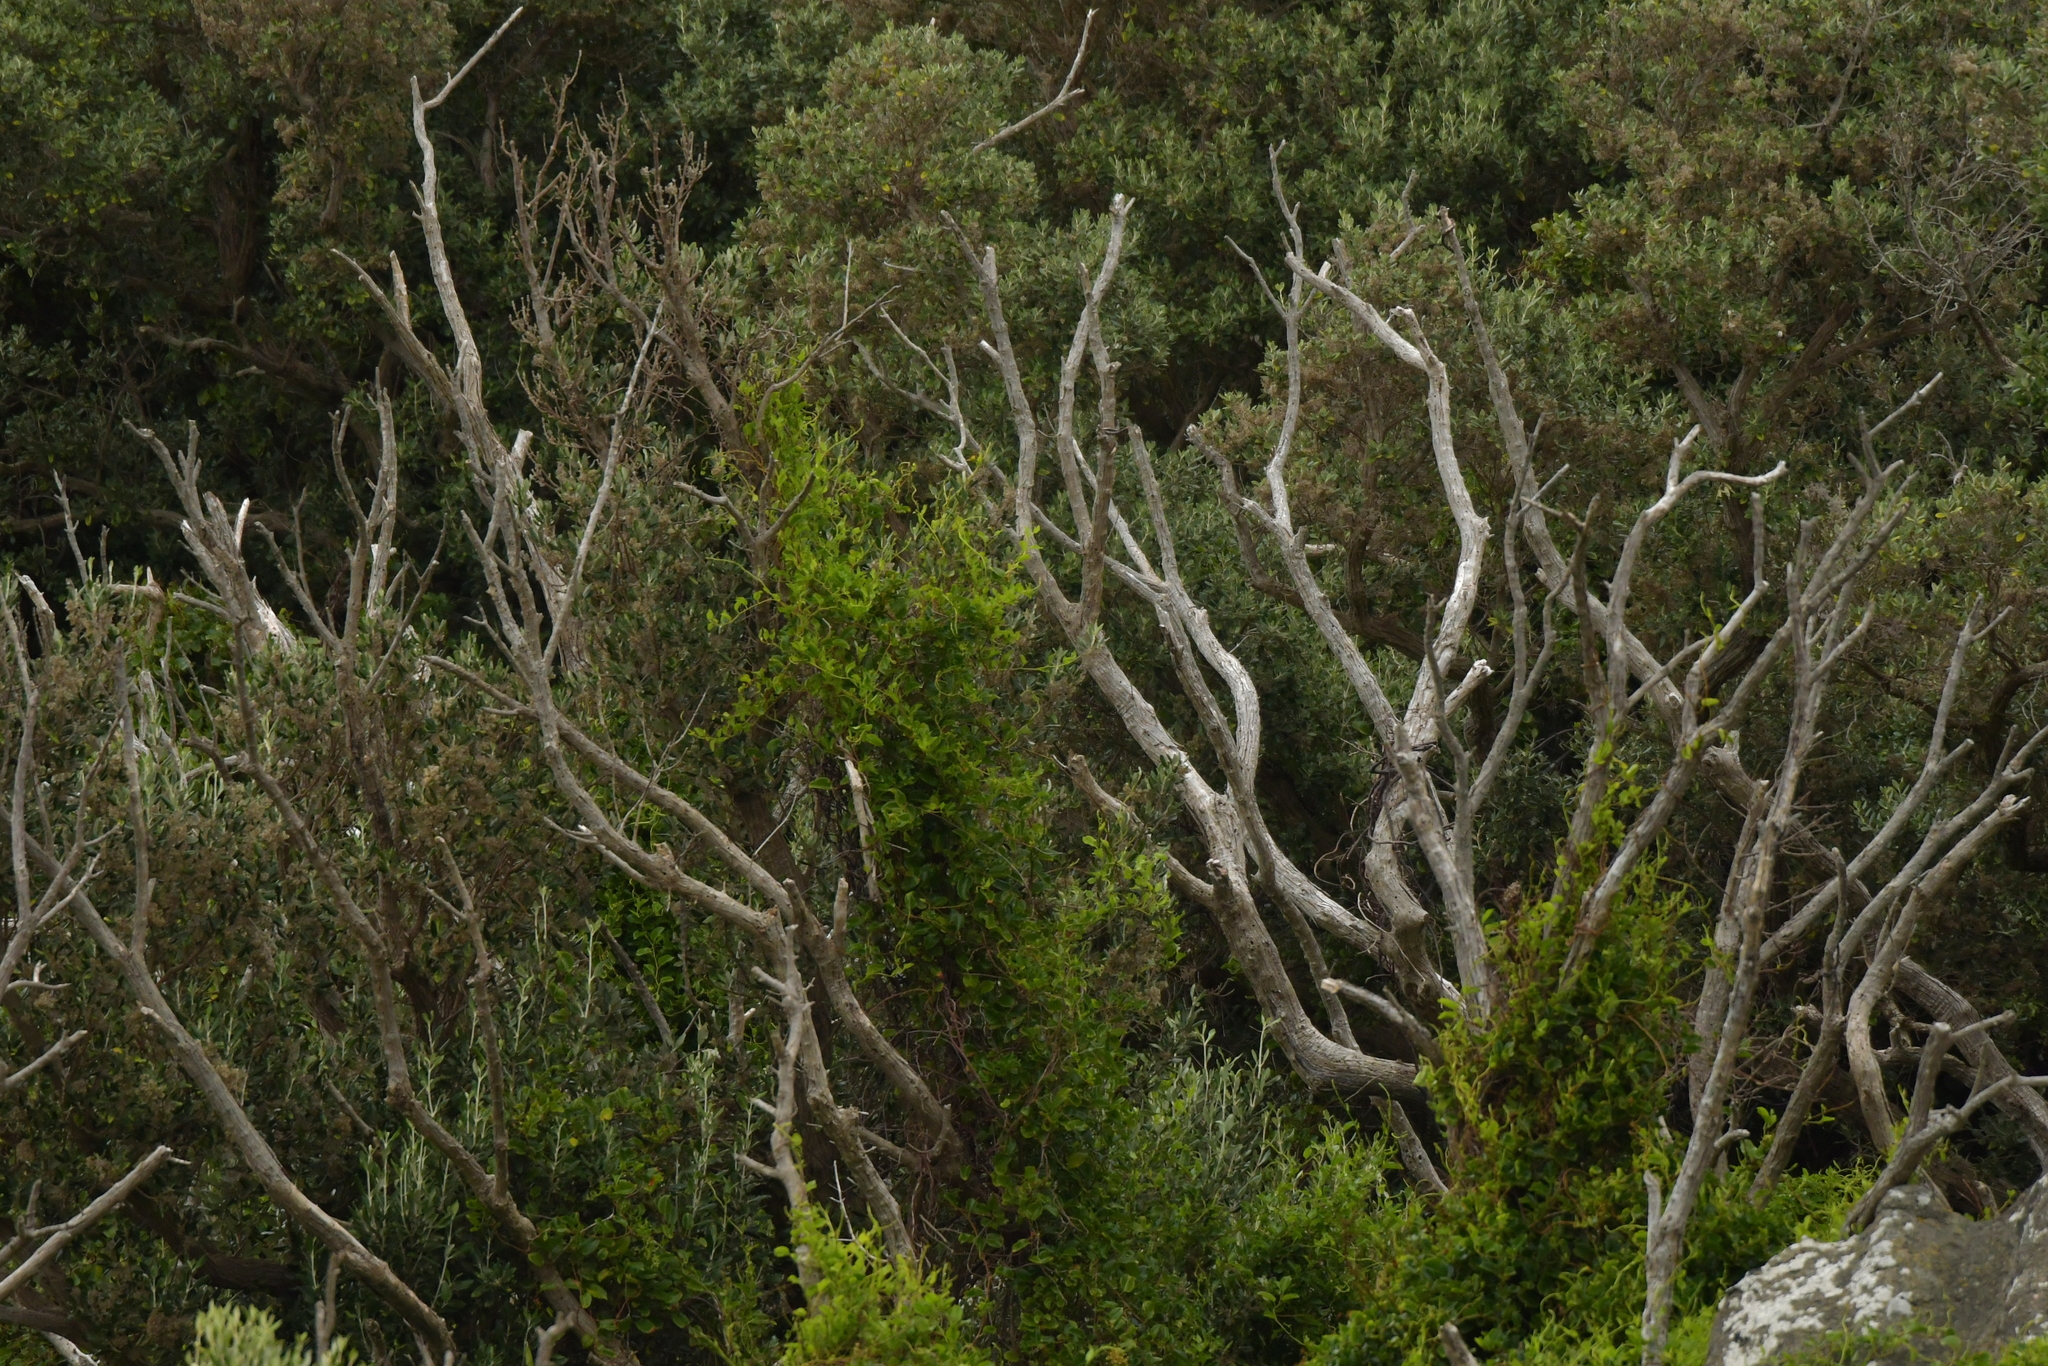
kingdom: Plantae
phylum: Tracheophyta
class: Magnoliopsida
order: Caryophyllales
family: Polygonaceae
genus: Muehlenbeckia
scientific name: Muehlenbeckia australis
